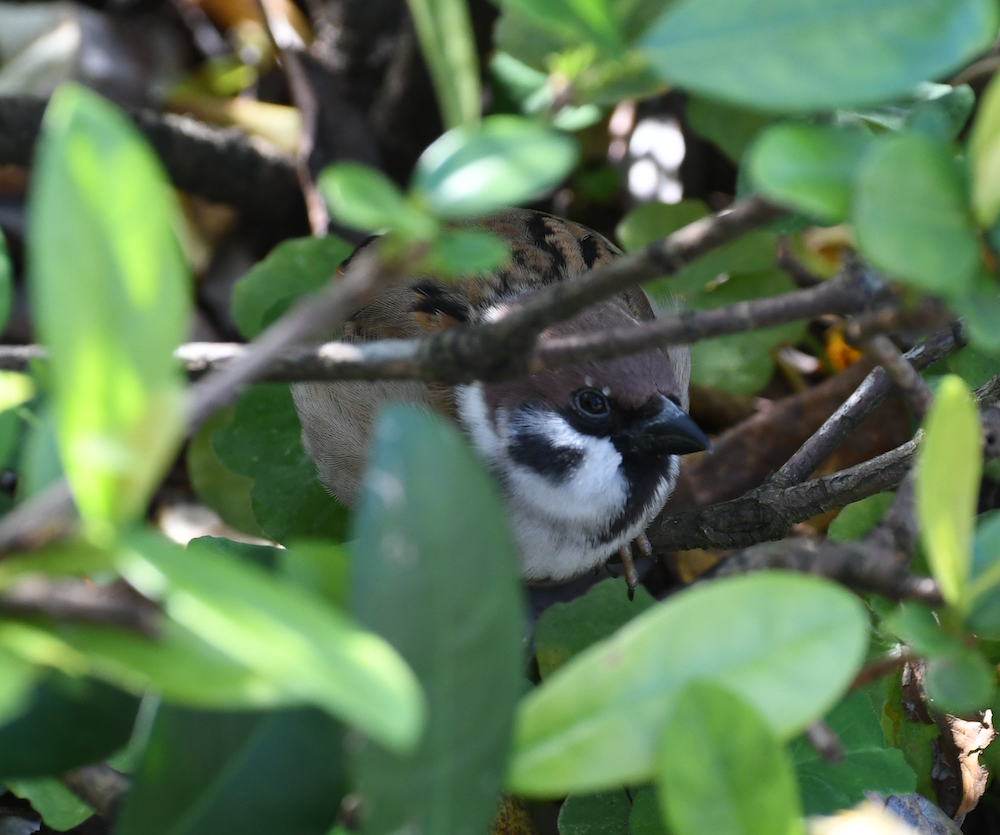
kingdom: Animalia
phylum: Chordata
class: Aves
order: Passeriformes
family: Passeridae
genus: Passer
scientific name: Passer montanus
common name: Eurasian tree sparrow
